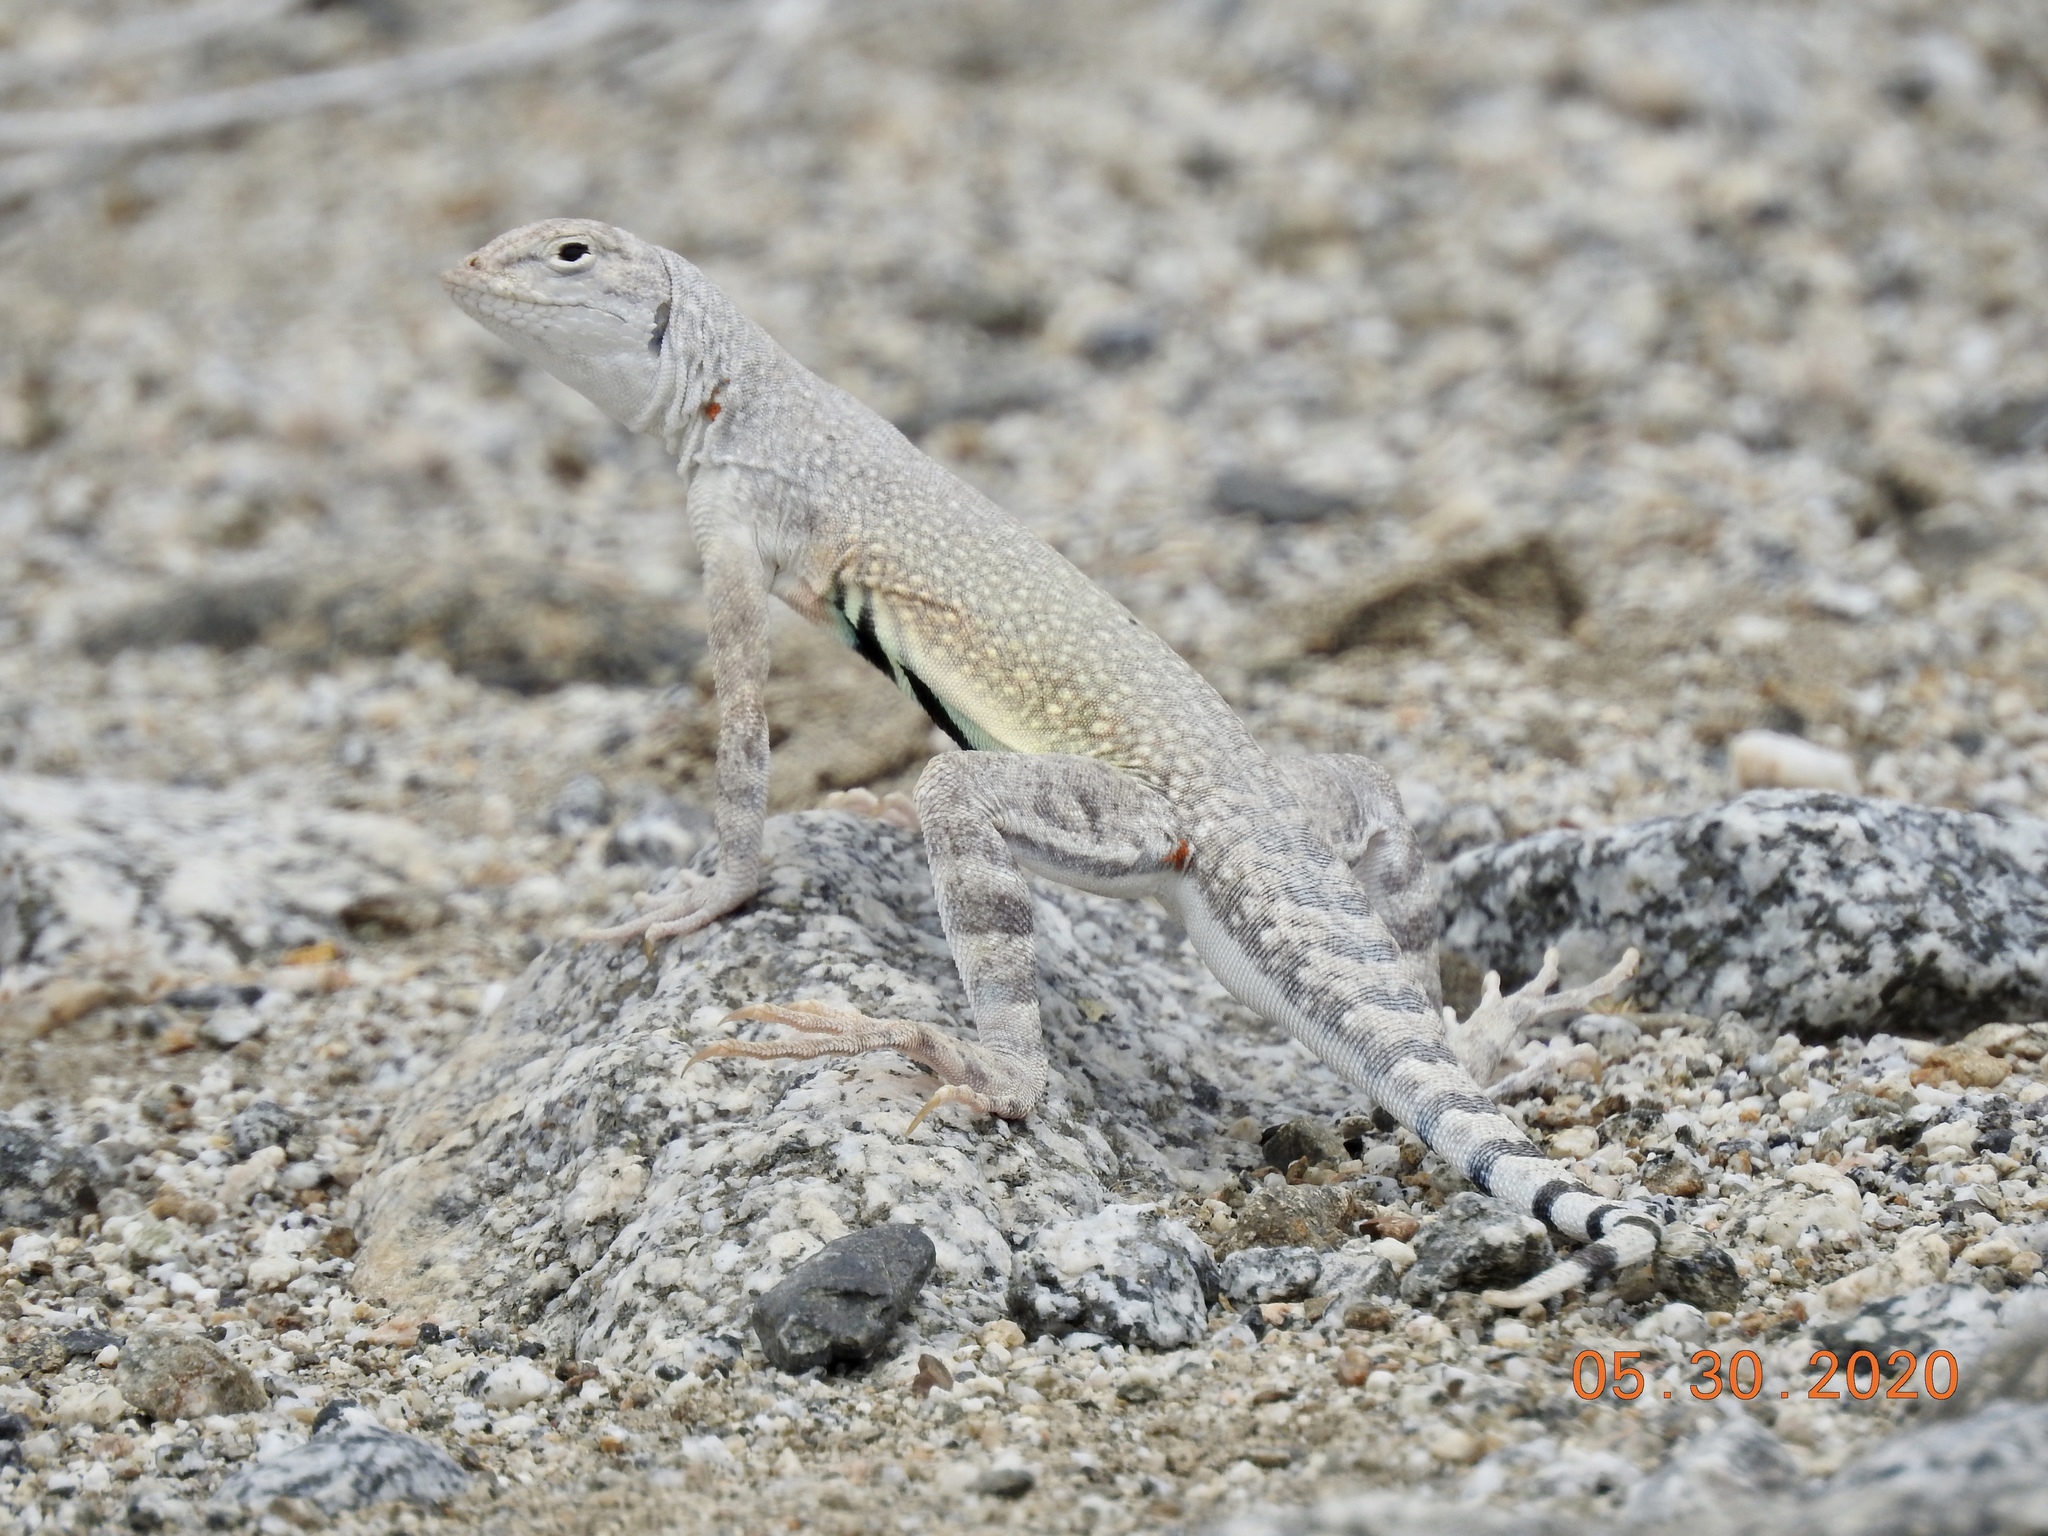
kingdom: Animalia
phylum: Chordata
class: Squamata
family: Phrynosomatidae
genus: Callisaurus
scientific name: Callisaurus draconoides
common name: Zebra-tailed lizard
